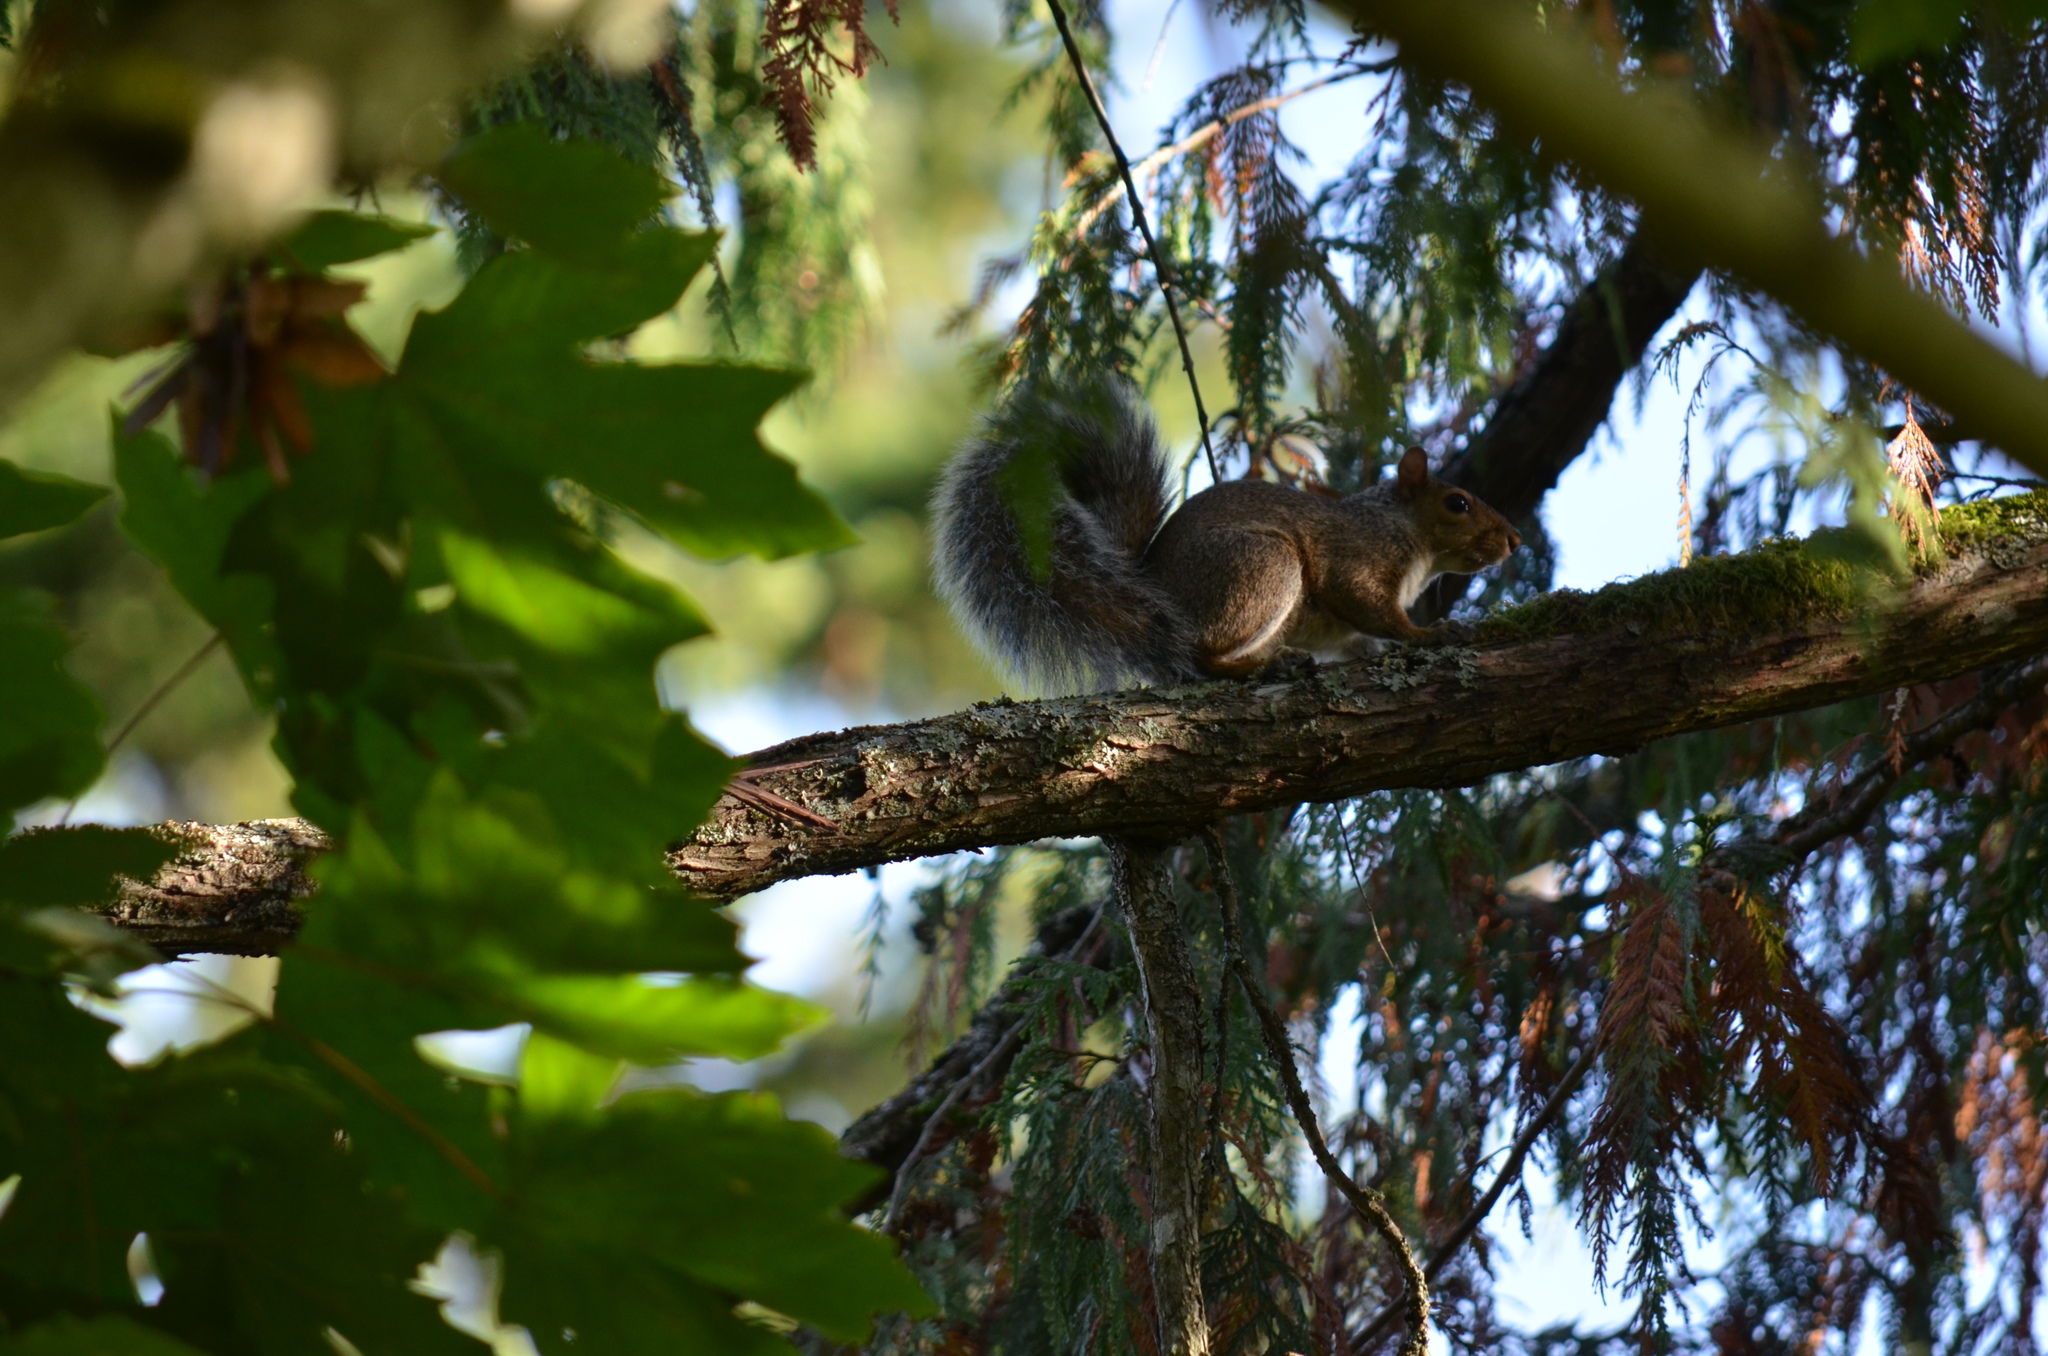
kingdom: Animalia
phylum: Chordata
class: Mammalia
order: Rodentia
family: Sciuridae
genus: Sciurus
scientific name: Sciurus carolinensis
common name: Eastern gray squirrel
